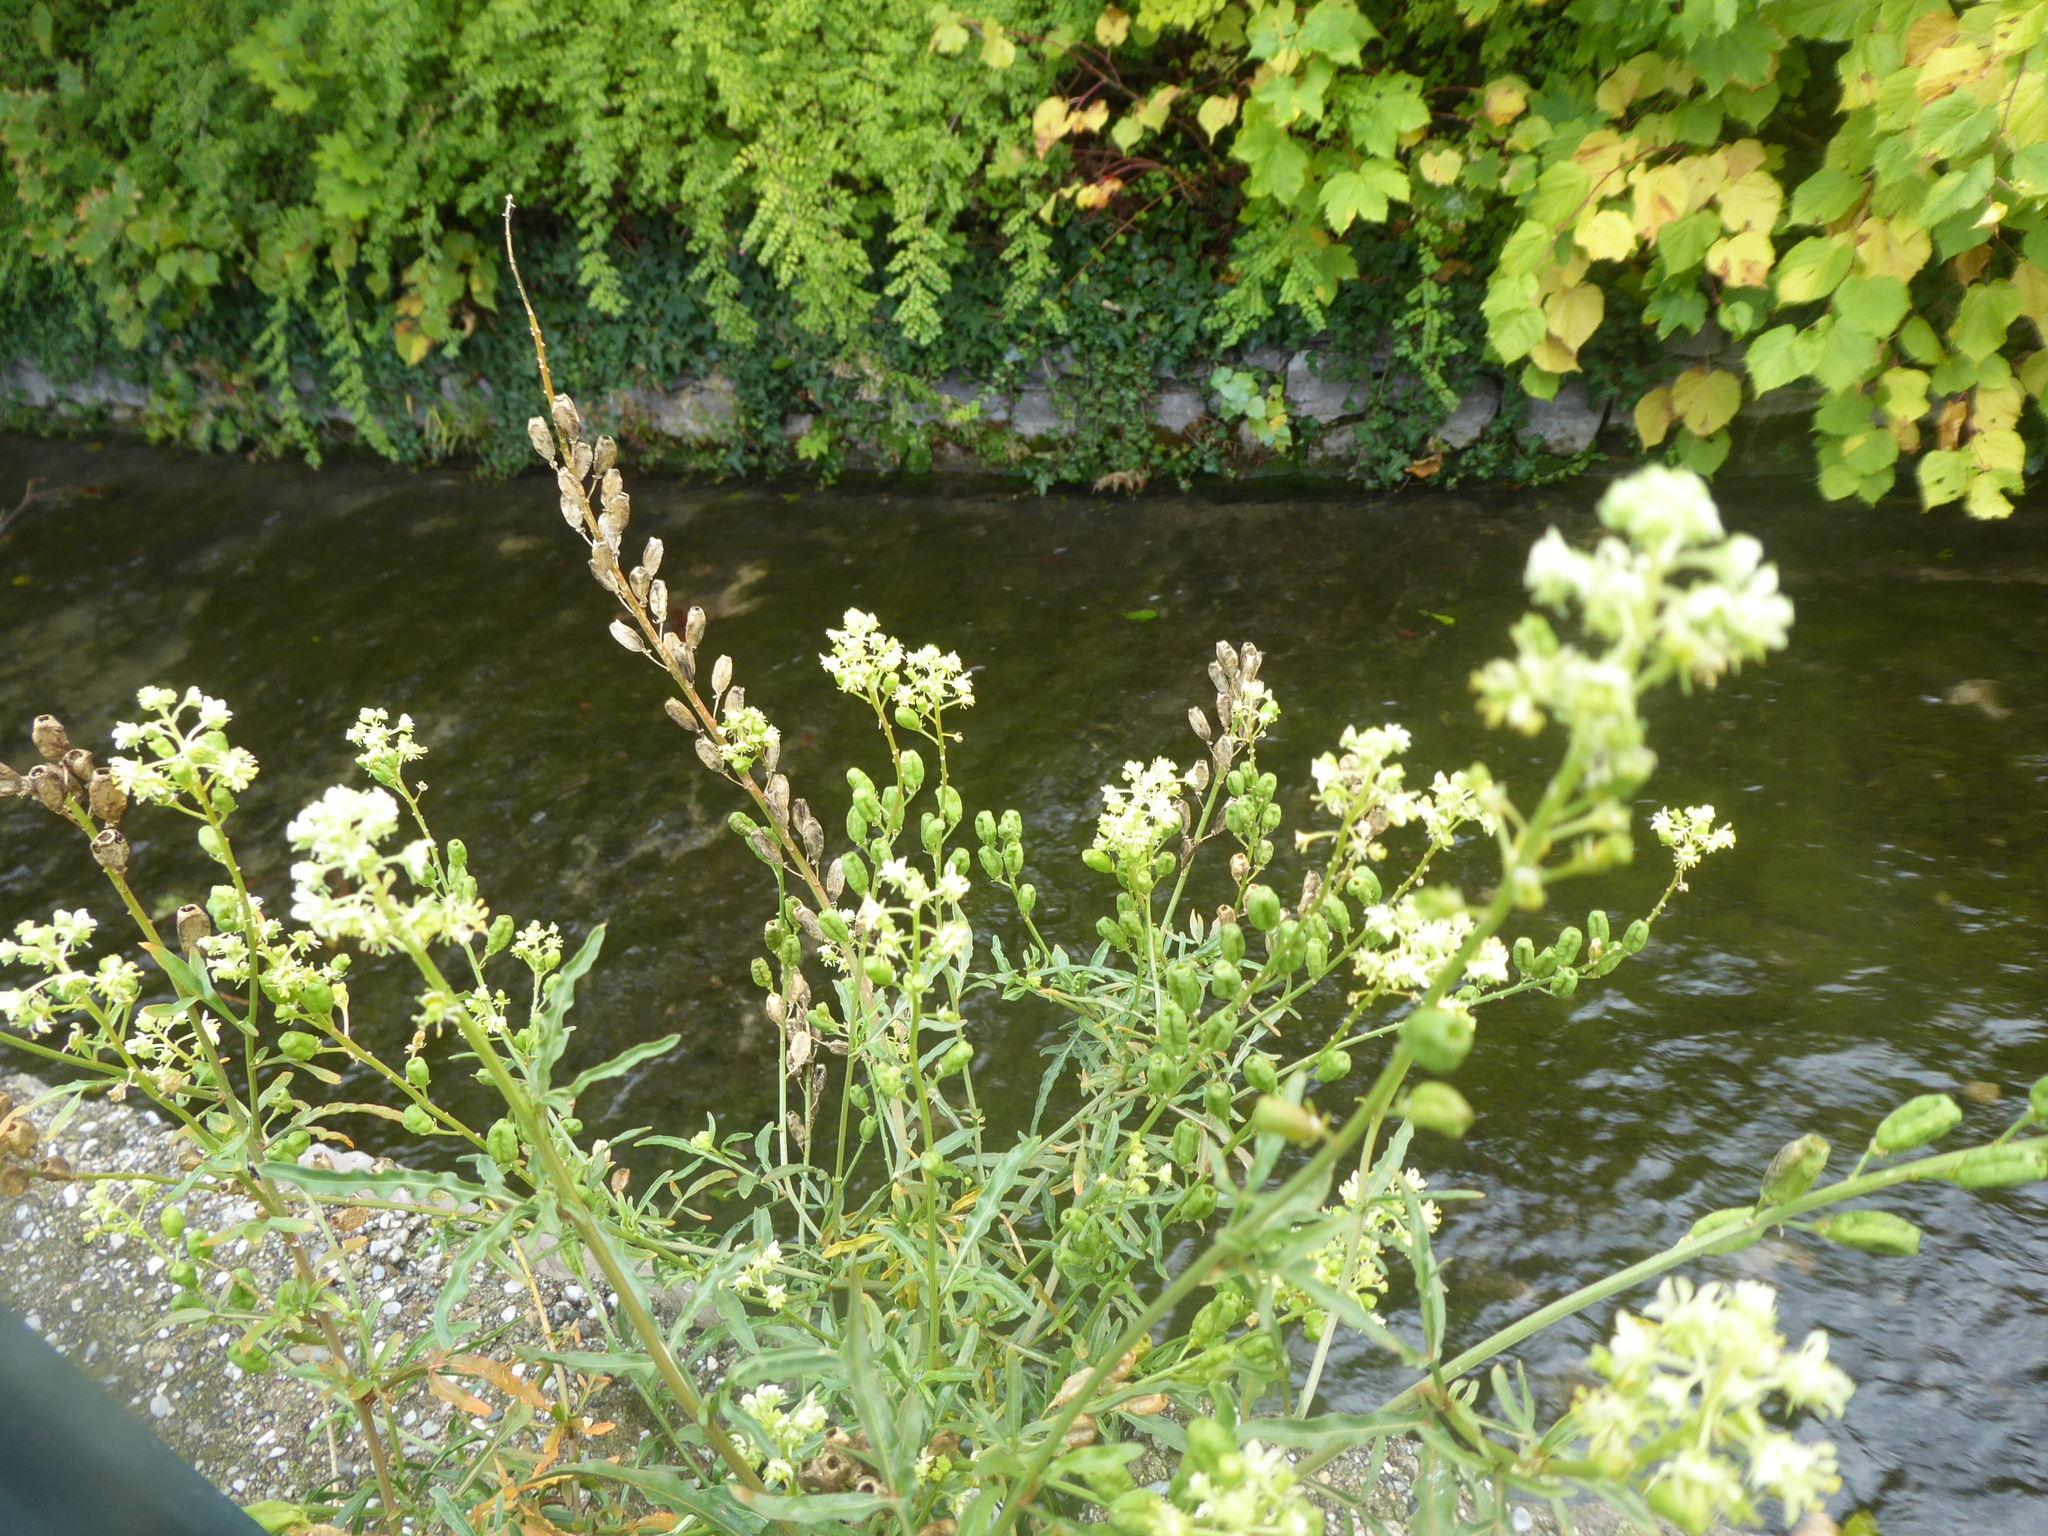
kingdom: Plantae
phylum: Tracheophyta
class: Magnoliopsida
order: Brassicales
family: Resedaceae
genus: Reseda
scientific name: Reseda lutea
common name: Wild mignonette
